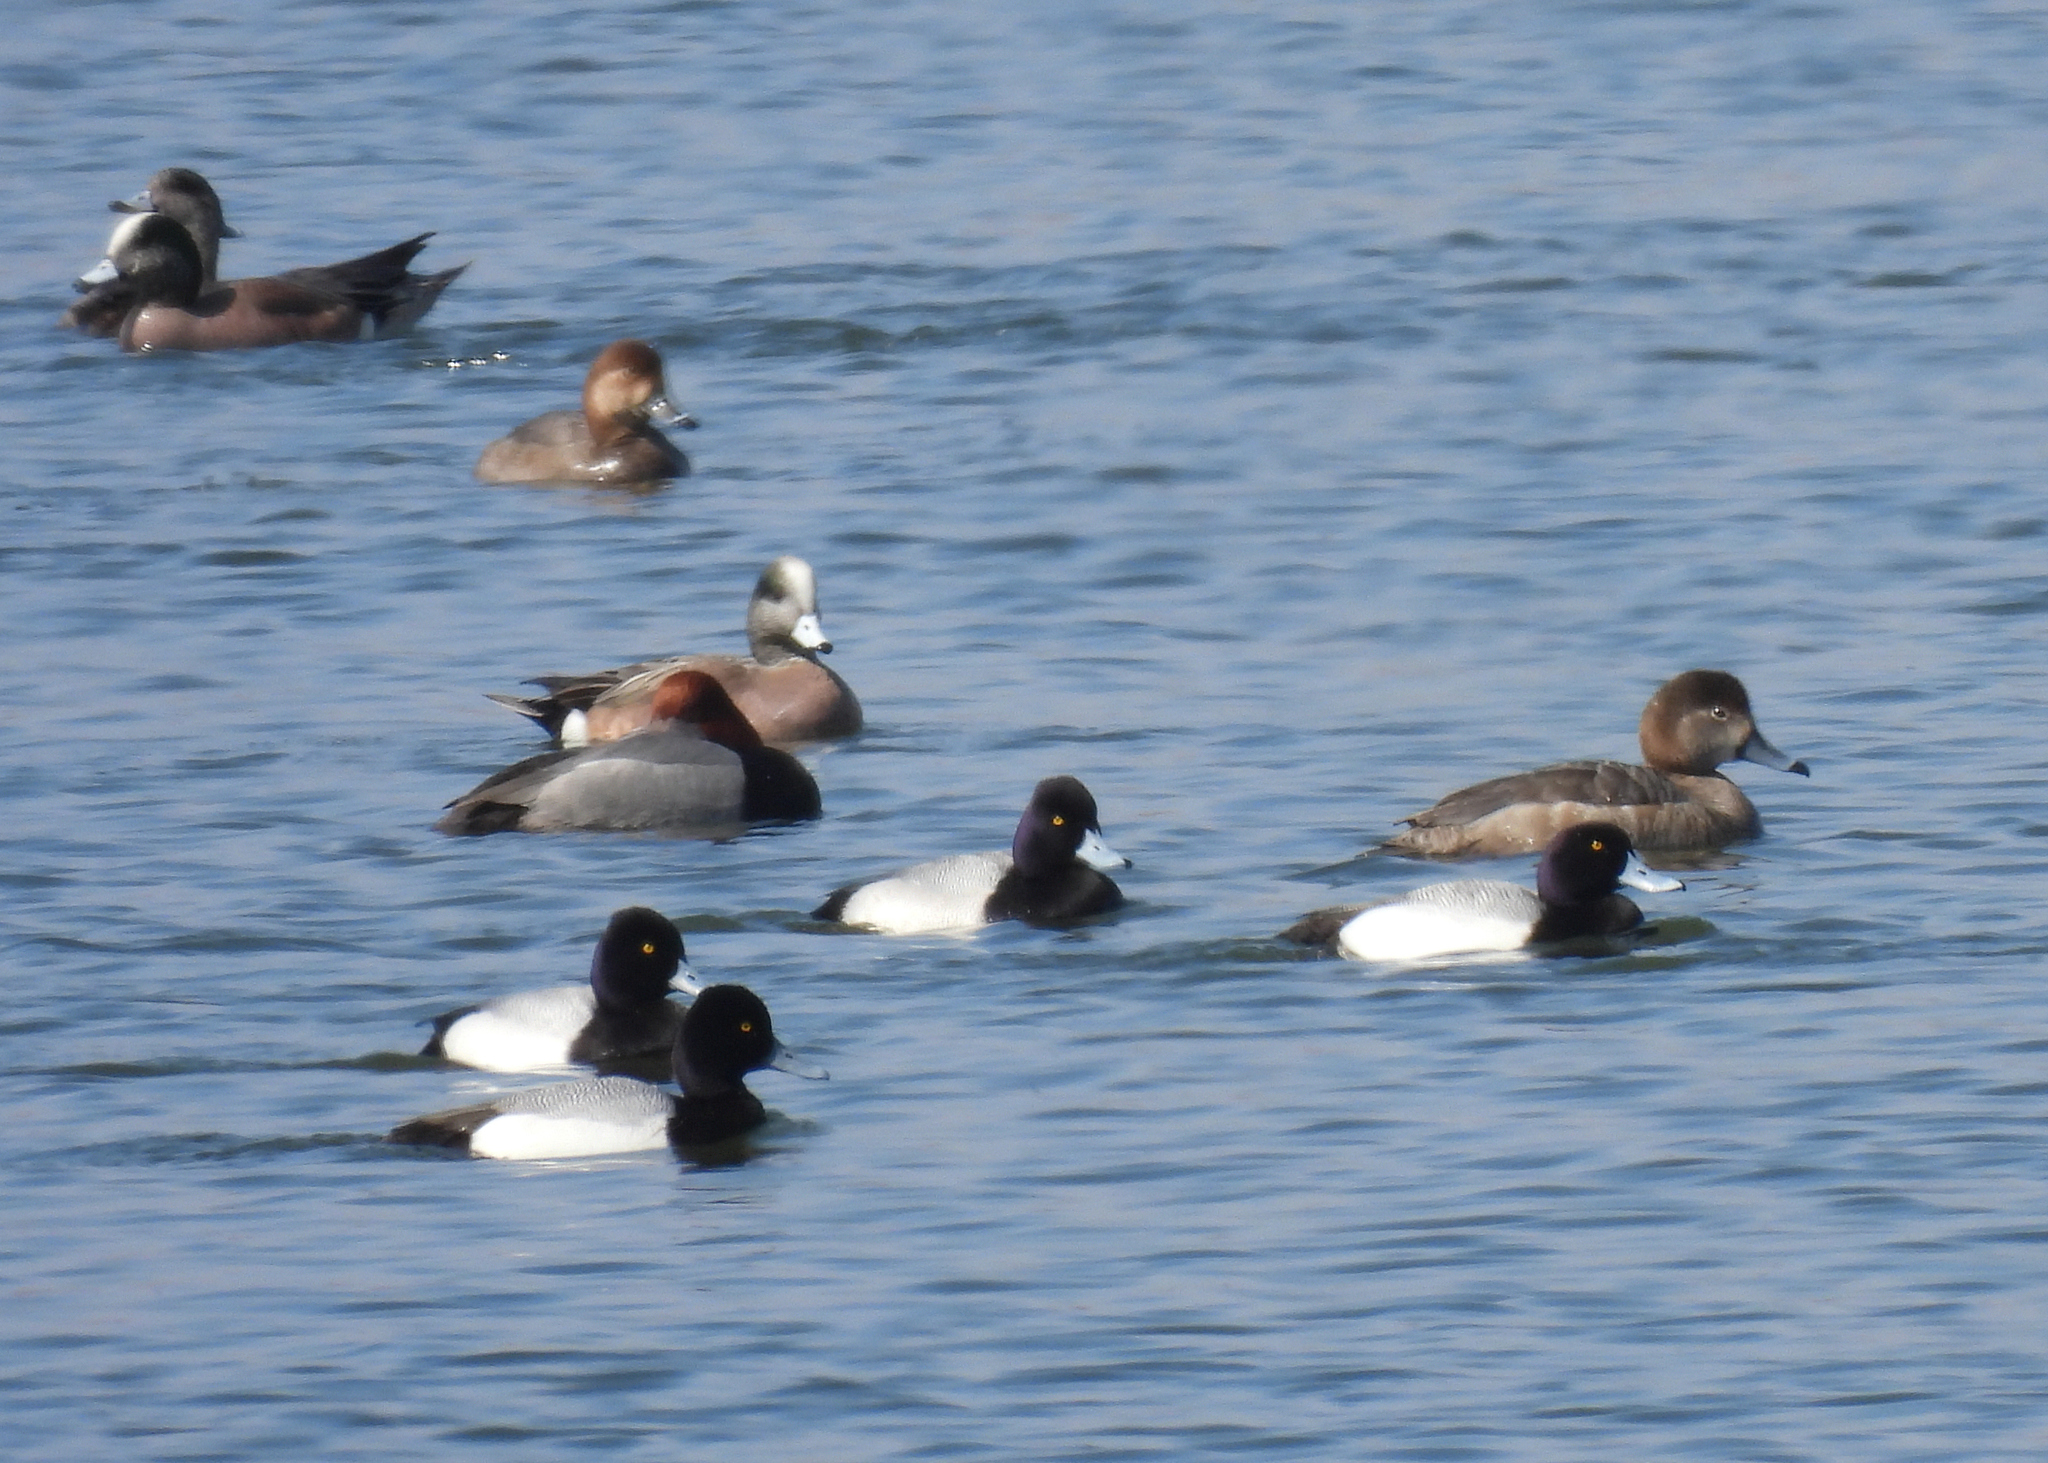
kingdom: Animalia
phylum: Chordata
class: Aves
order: Anseriformes
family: Anatidae
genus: Aythya
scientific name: Aythya marila
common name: Greater scaup
